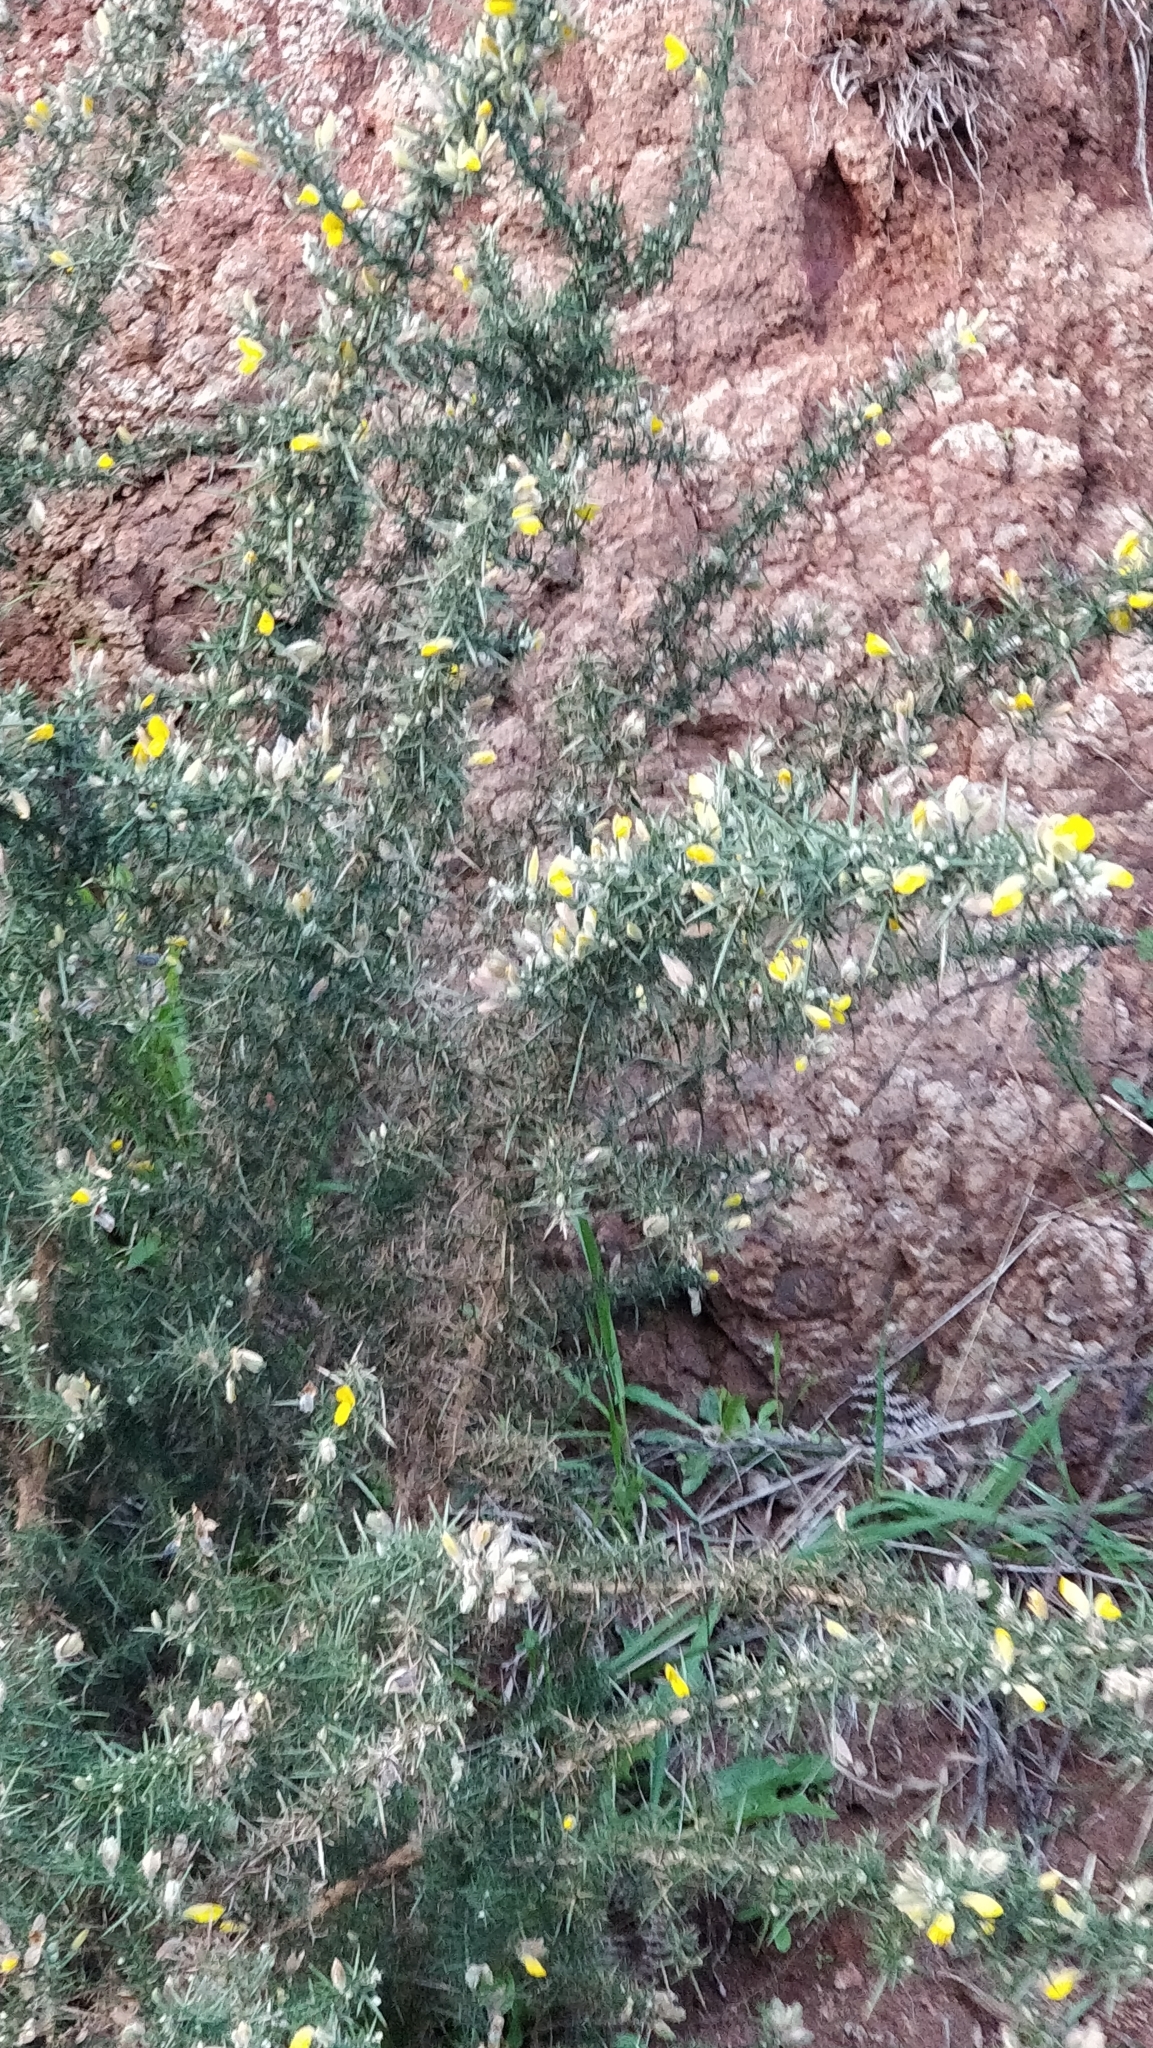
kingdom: Plantae
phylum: Tracheophyta
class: Magnoliopsida
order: Fabales
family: Fabaceae
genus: Ulex
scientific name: Ulex europaeus
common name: Common gorse
